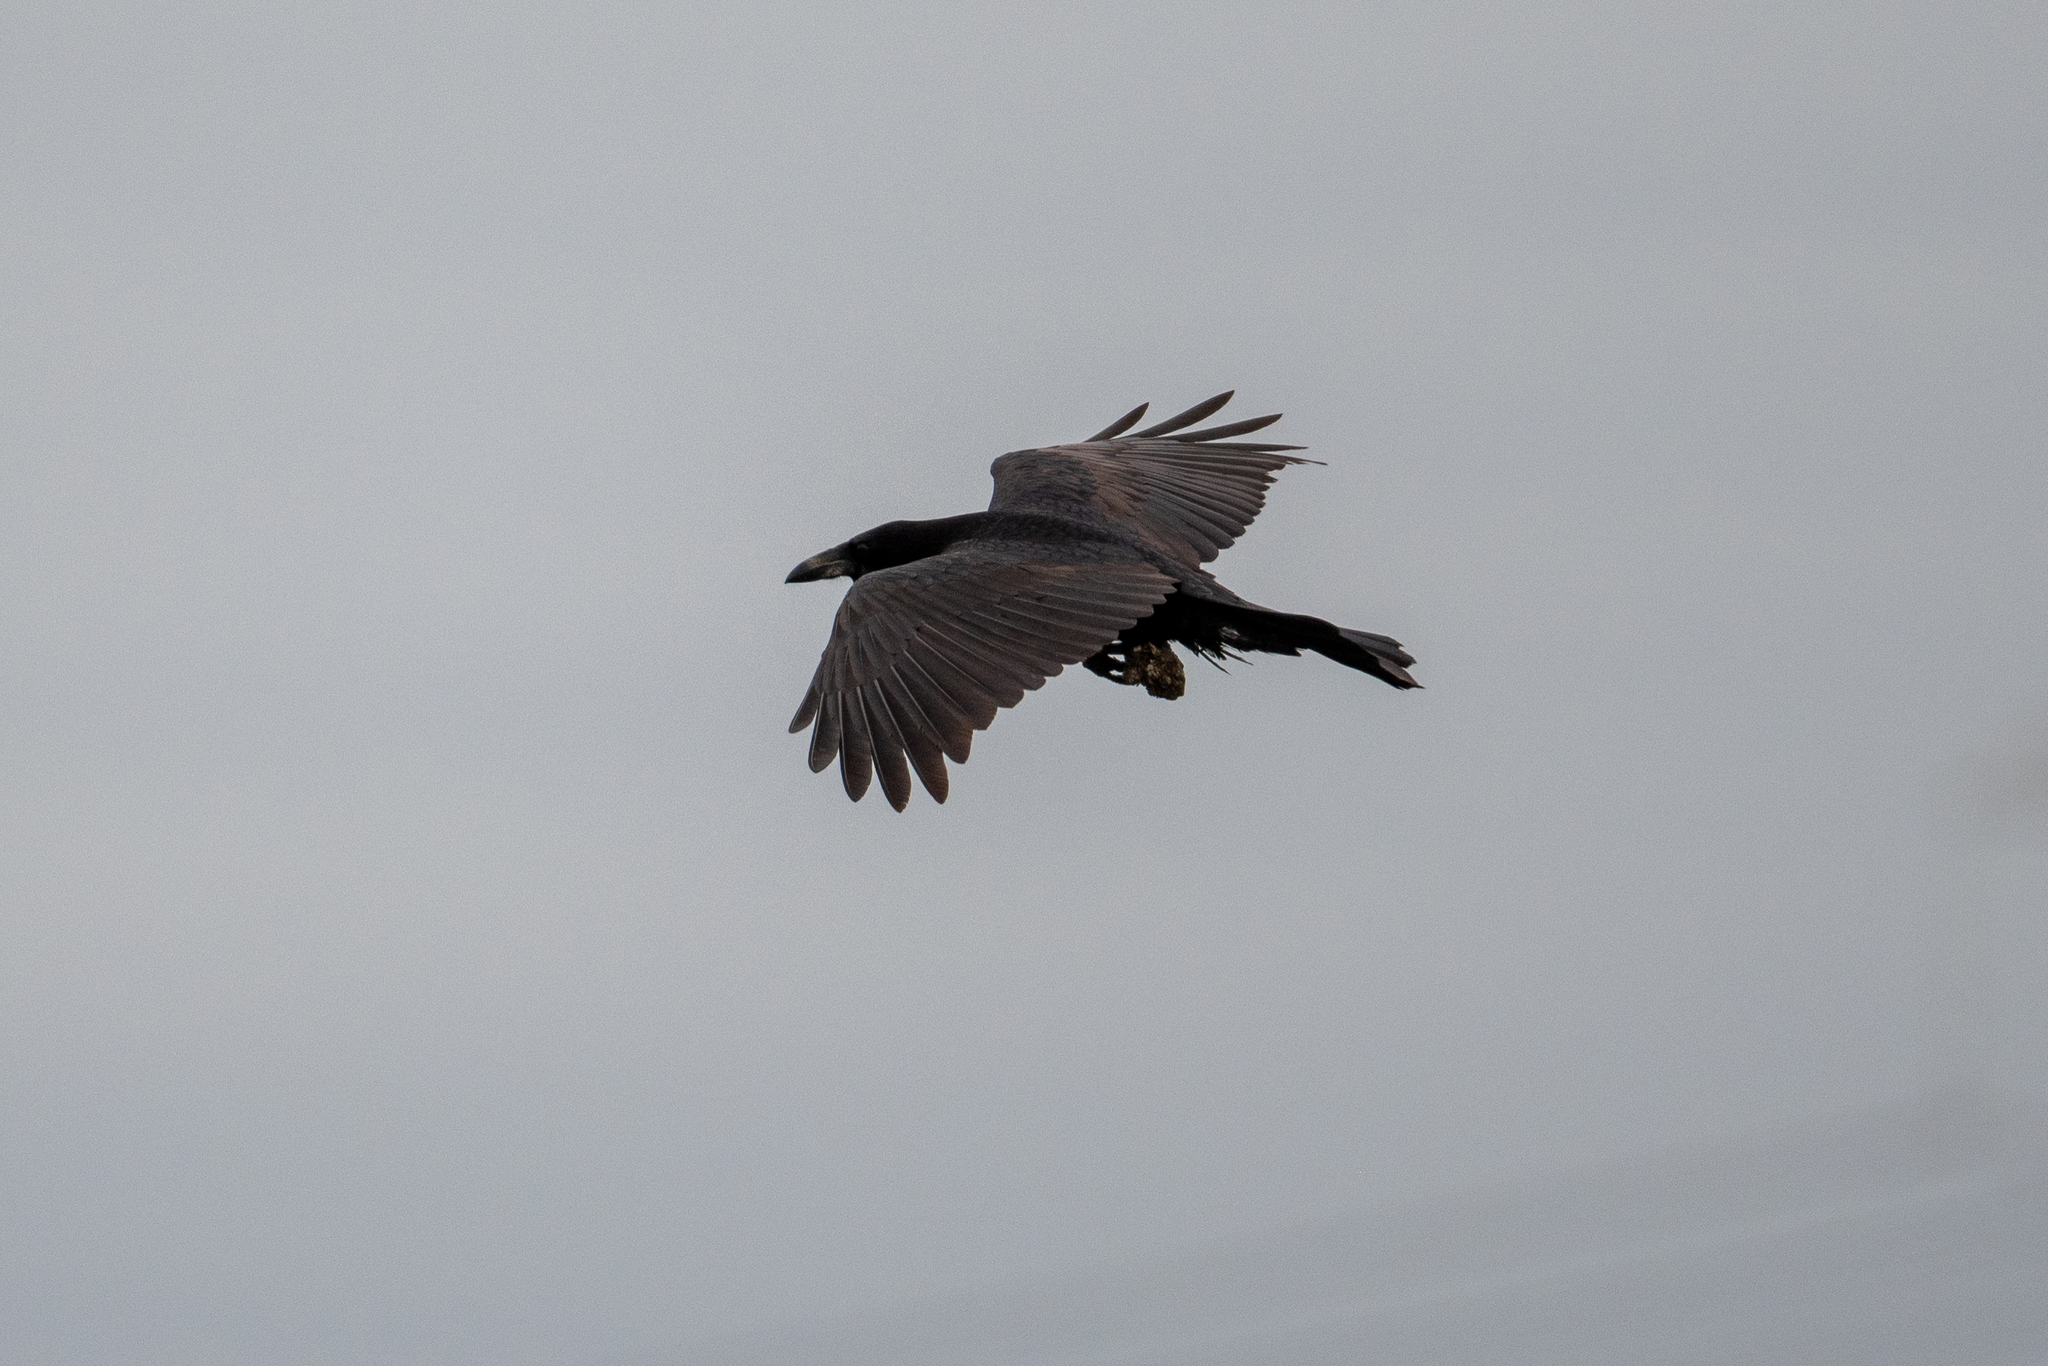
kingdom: Animalia
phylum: Chordata
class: Aves
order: Passeriformes
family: Corvidae
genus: Corvus
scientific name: Corvus corax
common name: Common raven
